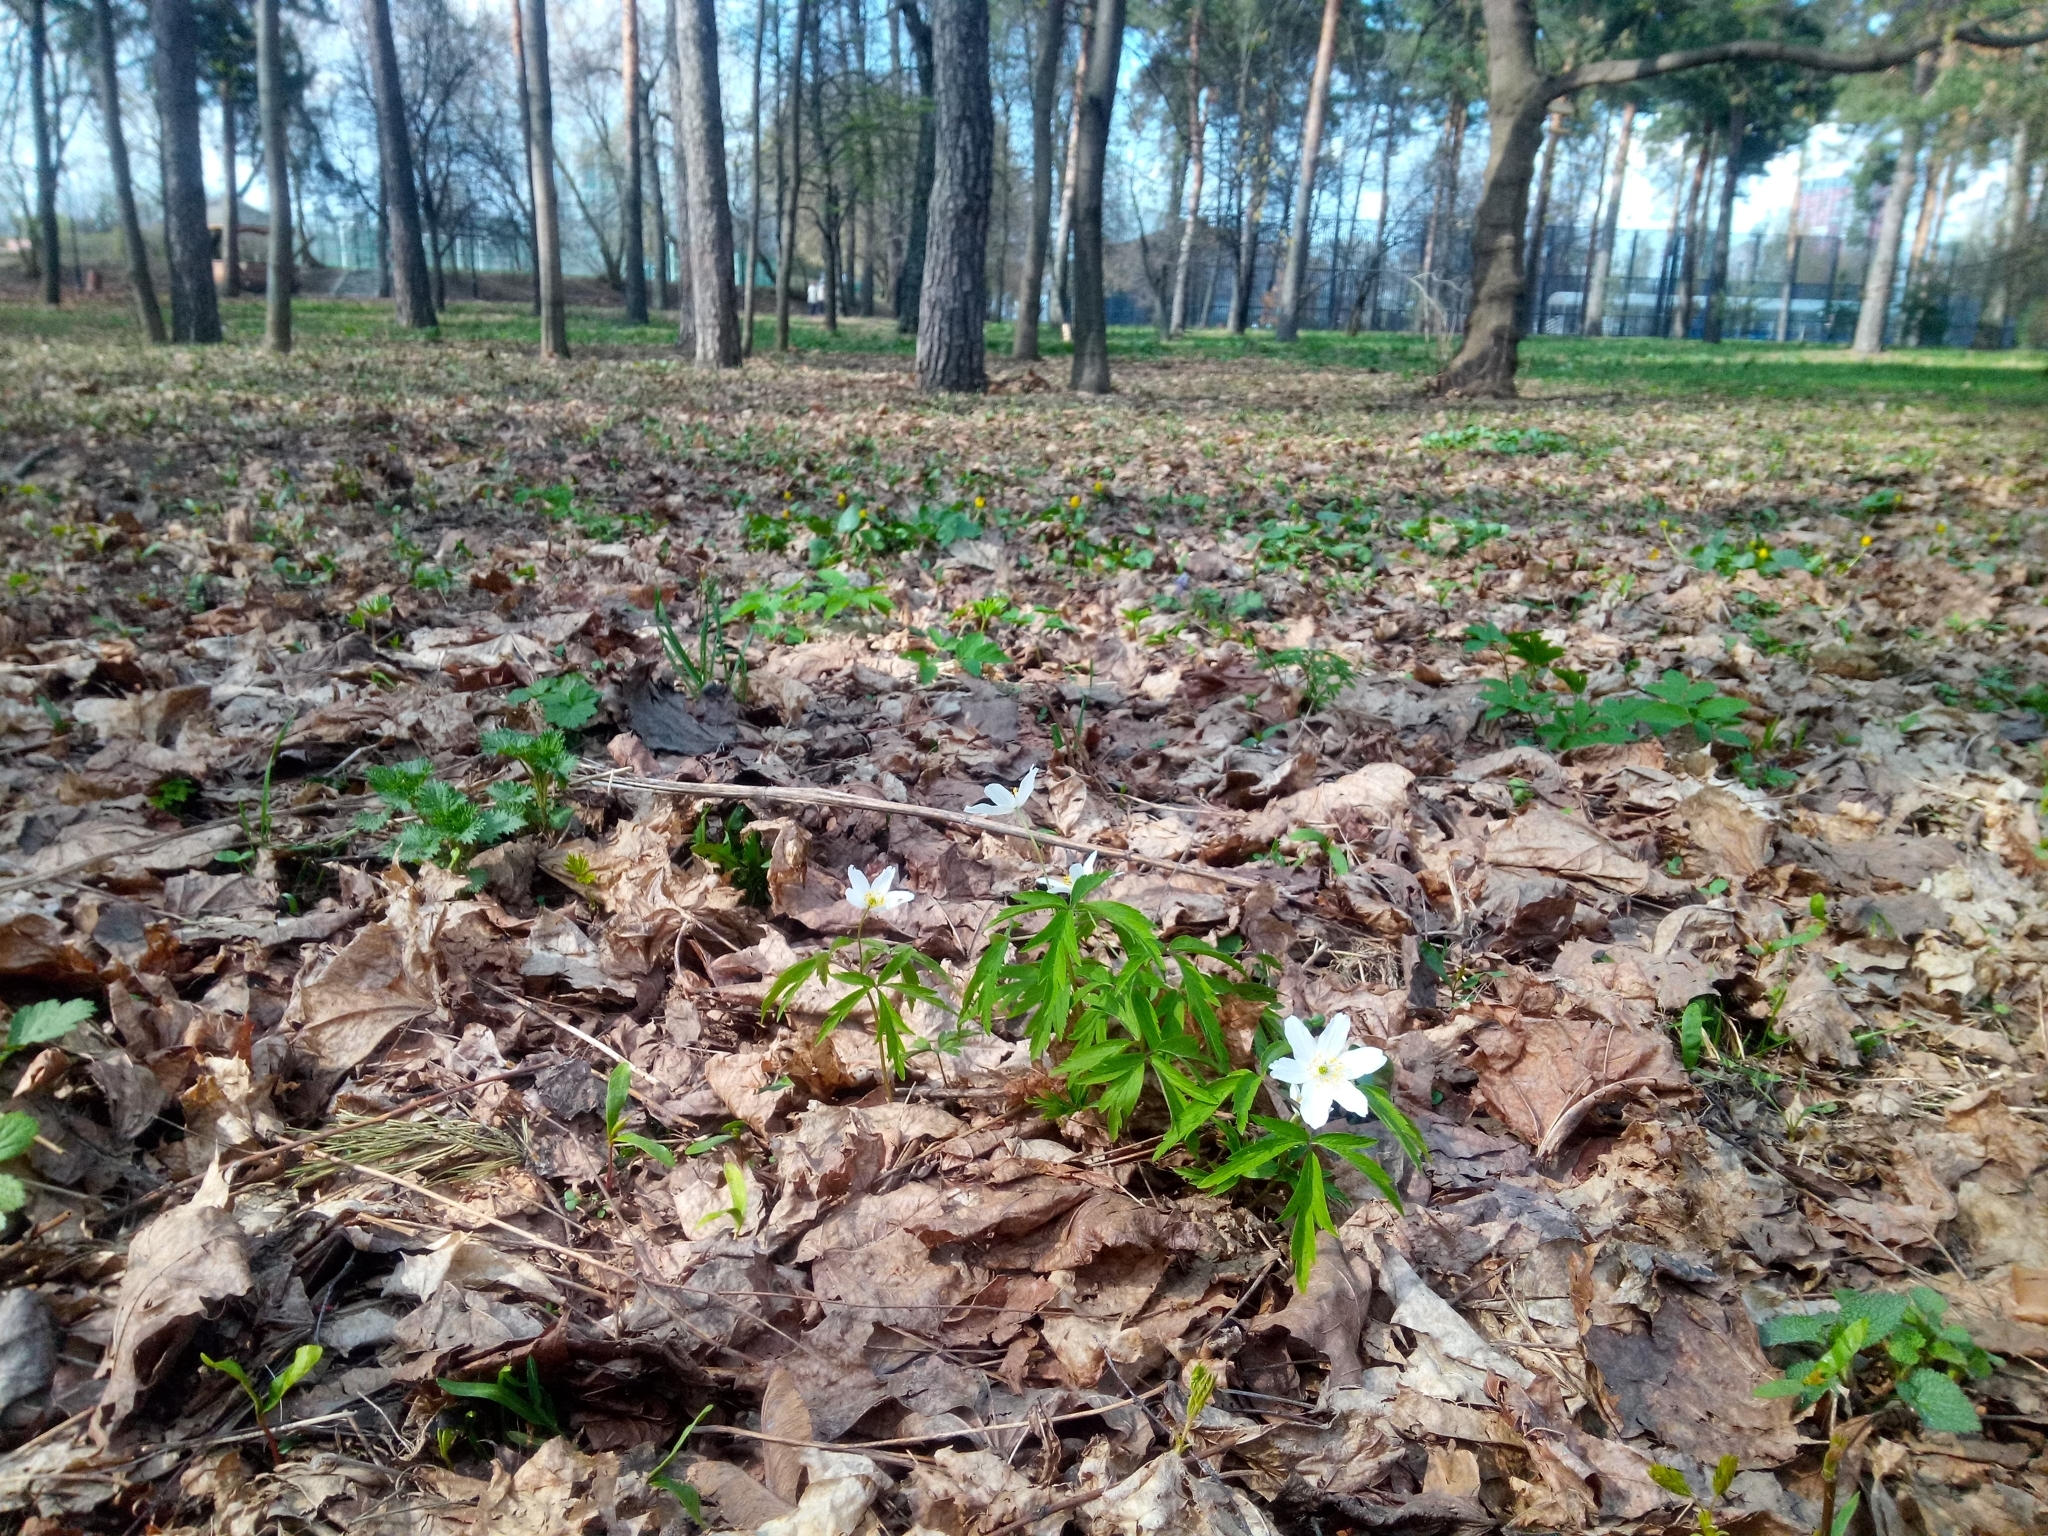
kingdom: Plantae
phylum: Tracheophyta
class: Magnoliopsida
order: Ranunculales
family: Ranunculaceae
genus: Anemone
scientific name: Anemone nemorosa
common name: Wood anemone
